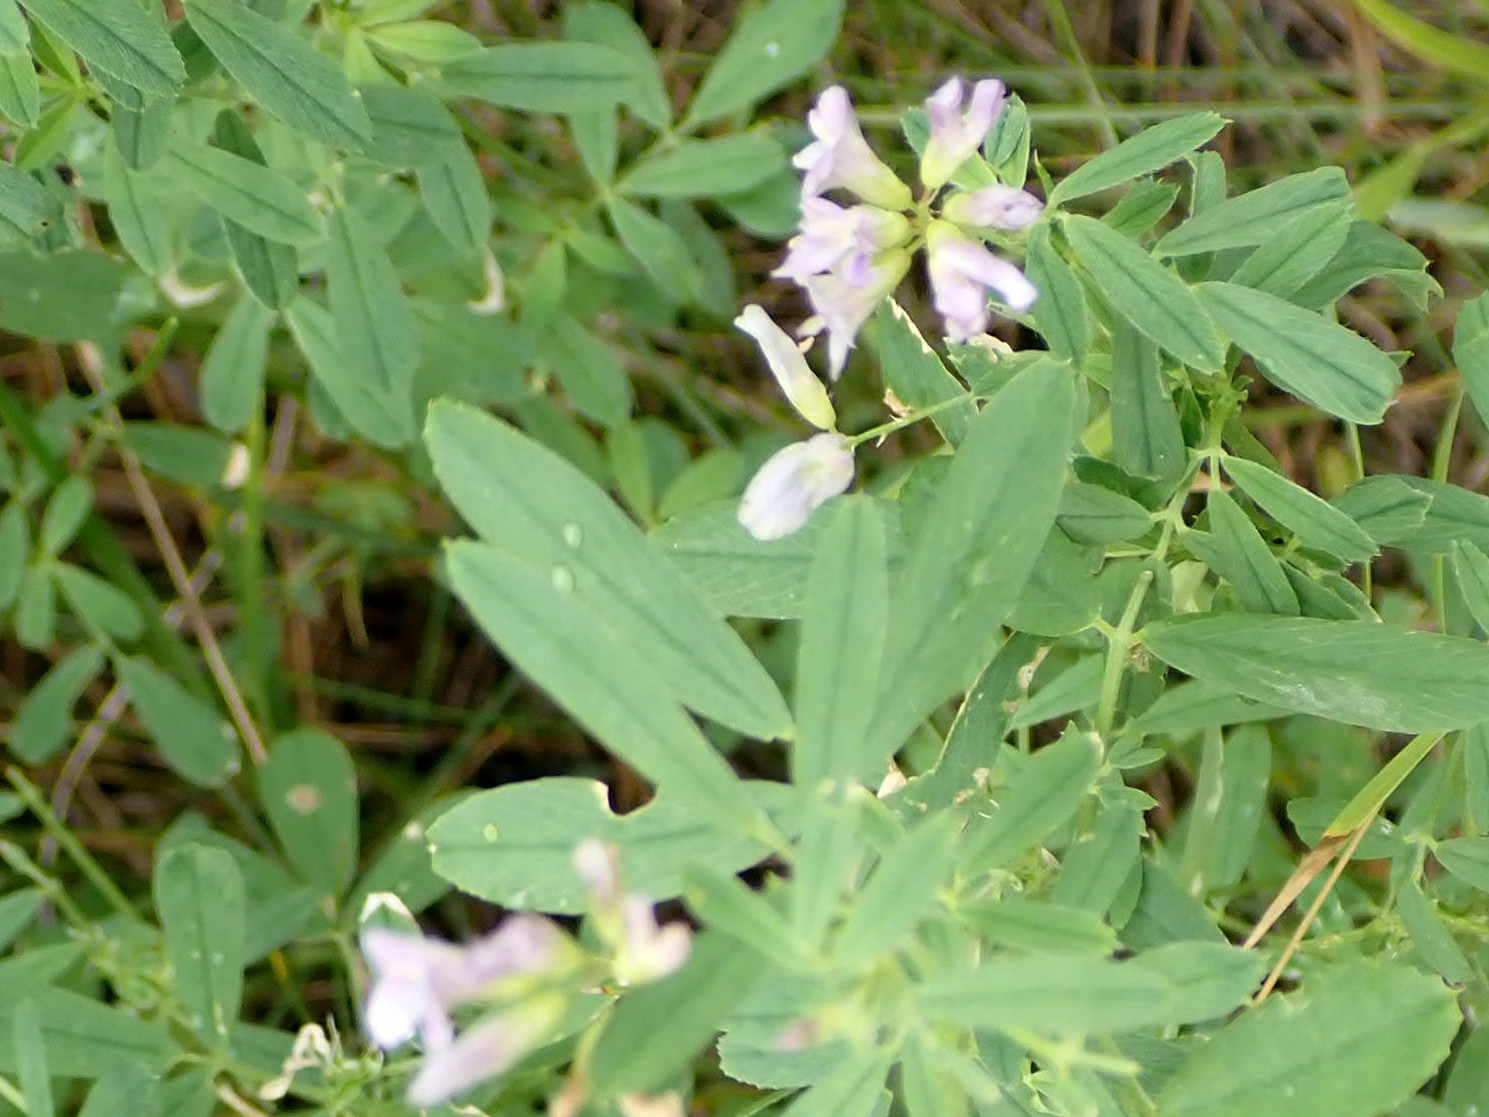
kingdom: Plantae
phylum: Tracheophyta
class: Magnoliopsida
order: Fabales
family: Fabaceae
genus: Medicago
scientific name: Medicago sativa
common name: Alfalfa
